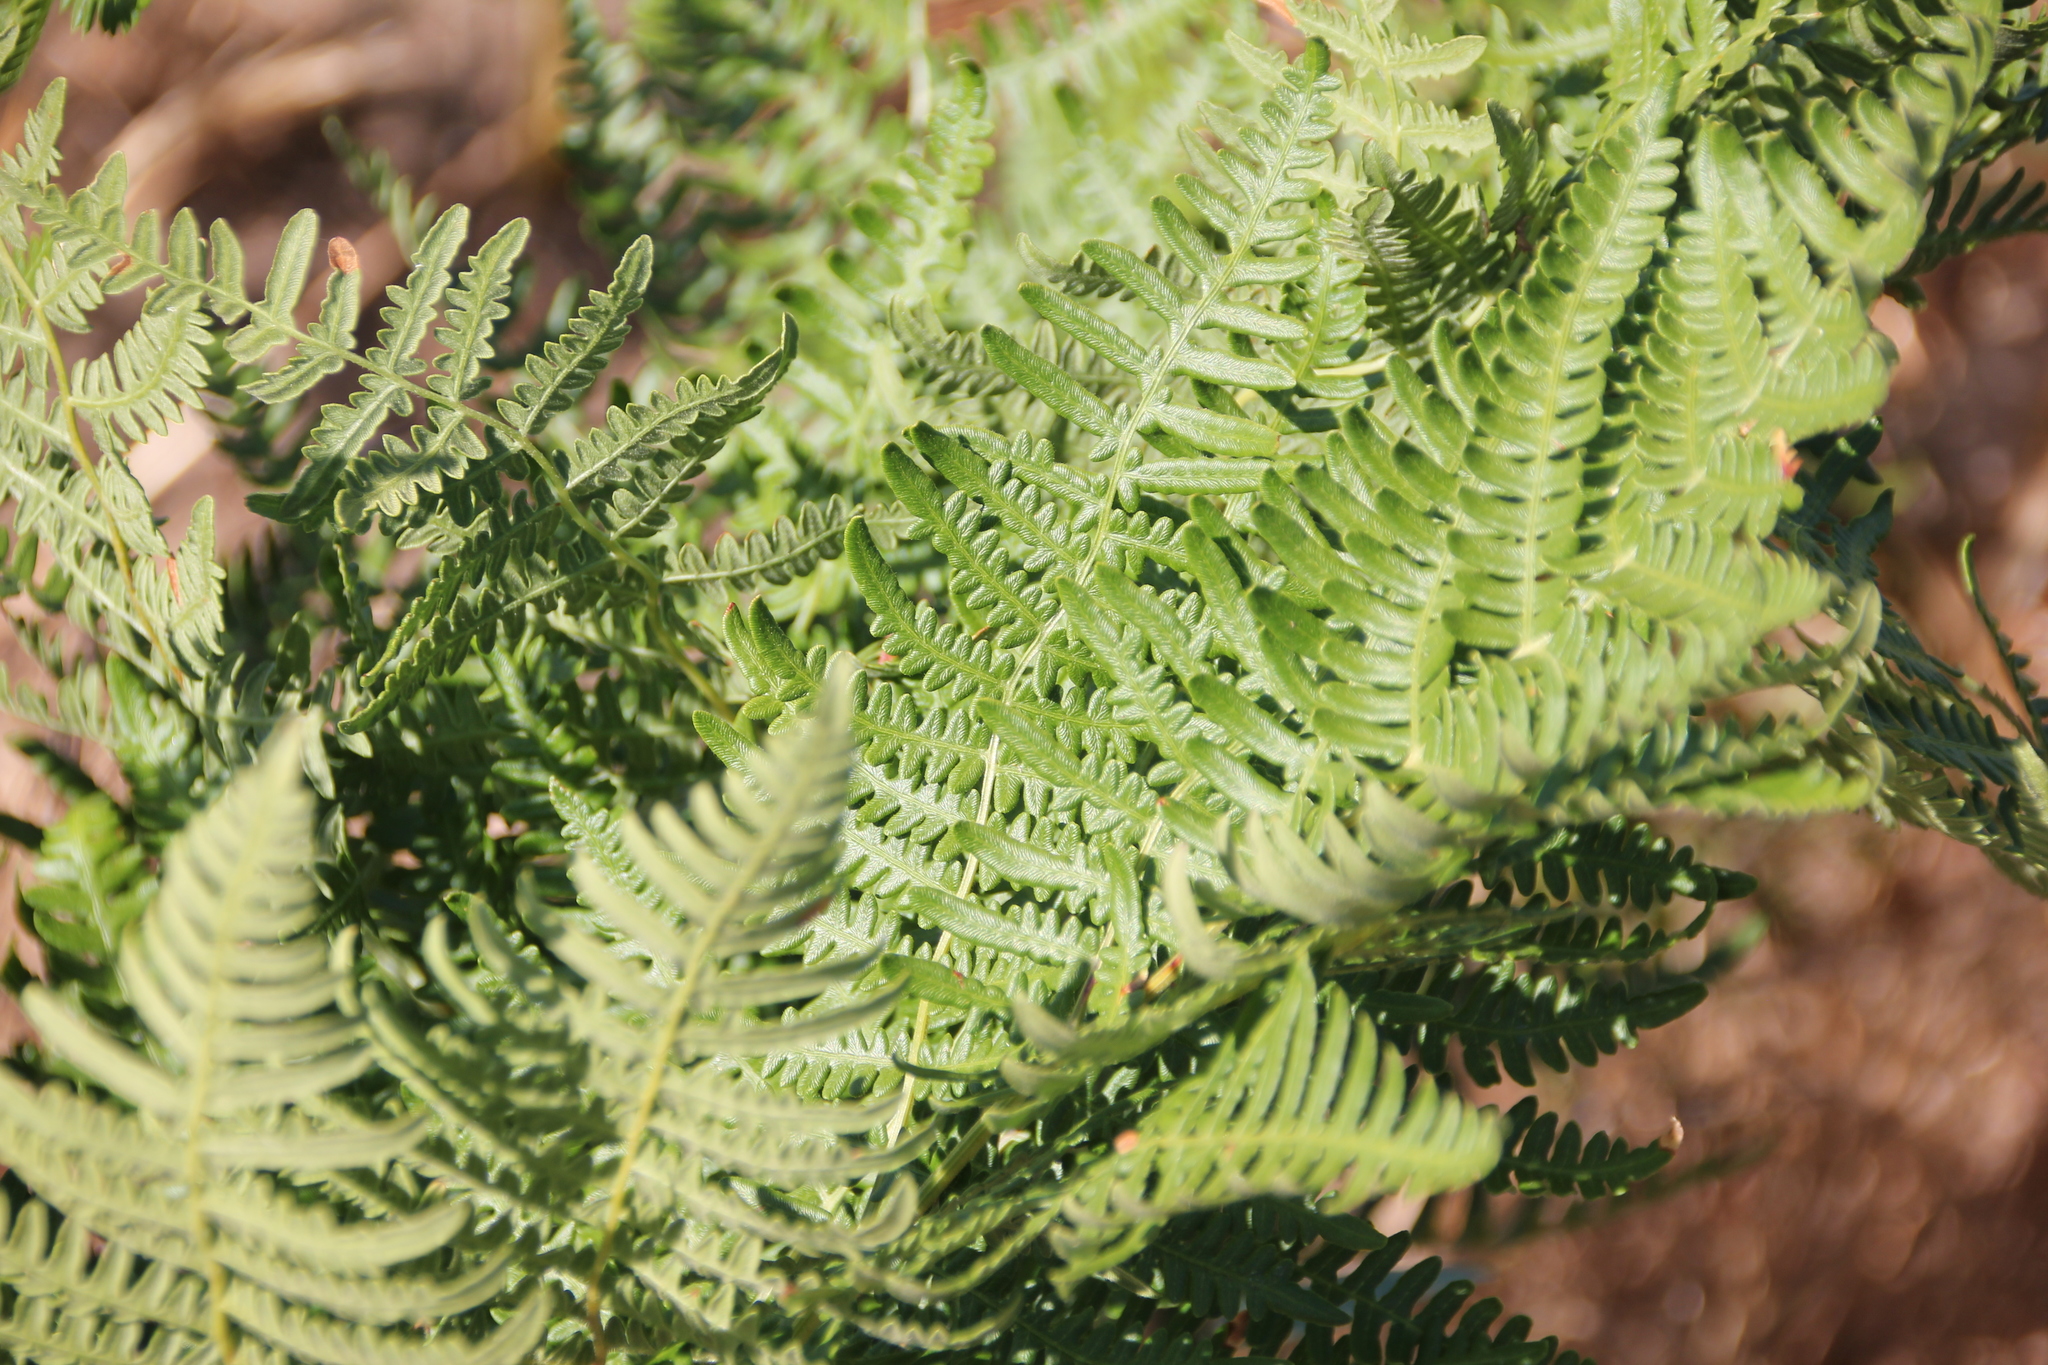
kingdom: Plantae
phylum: Tracheophyta
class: Polypodiopsida
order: Polypodiales
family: Dennstaedtiaceae
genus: Pteridium
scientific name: Pteridium aquilinum
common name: Bracken
